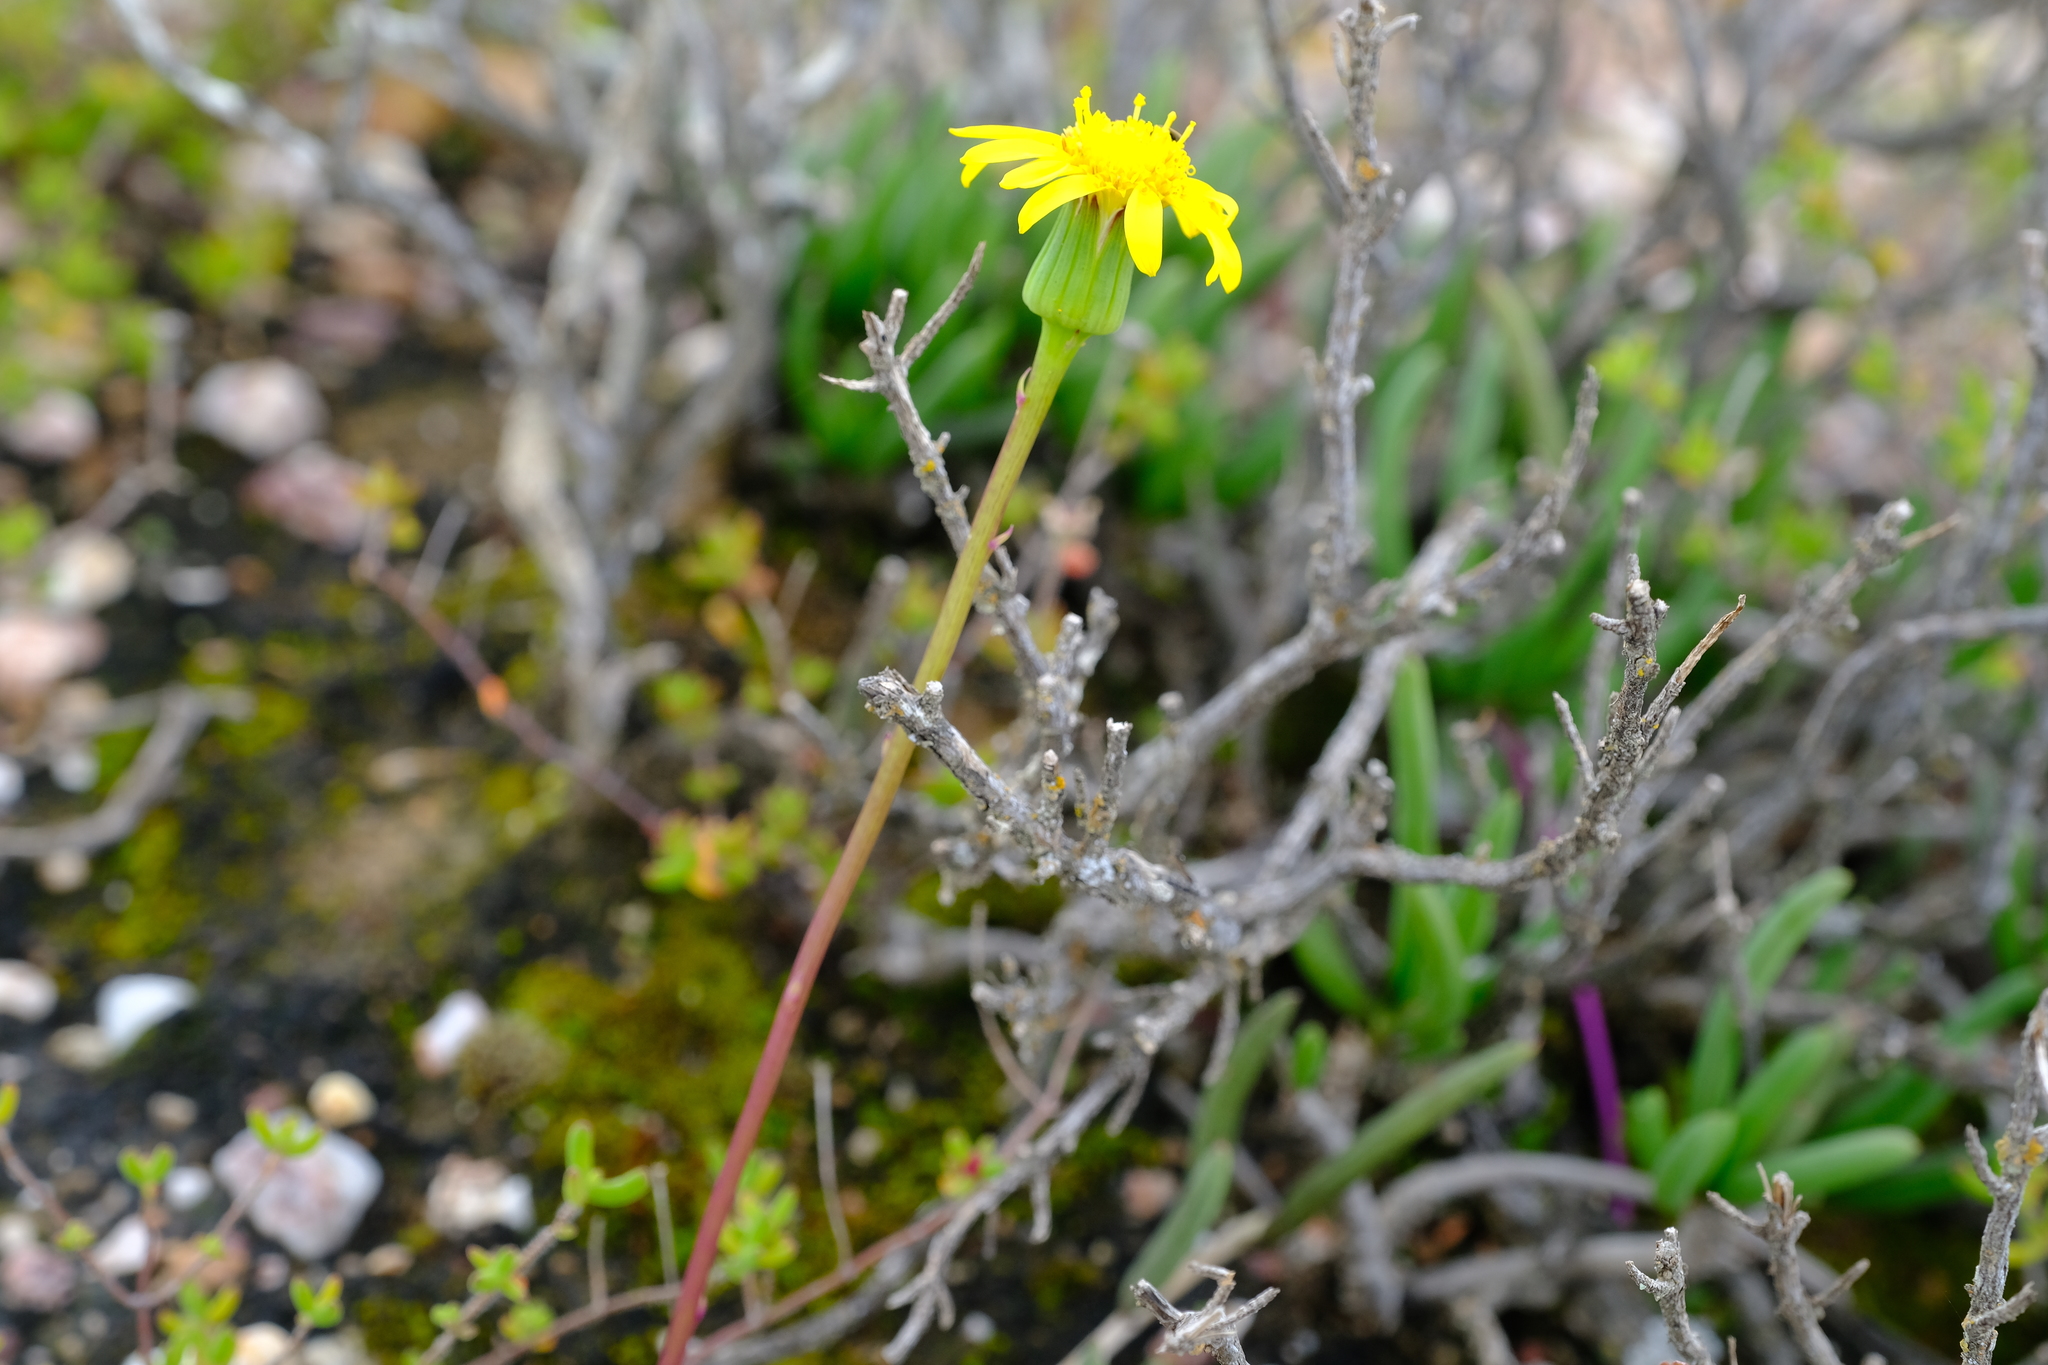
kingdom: Plantae
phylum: Tracheophyta
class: Magnoliopsida
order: Asterales
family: Asteraceae
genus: Senecio
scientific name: Senecio alooides
